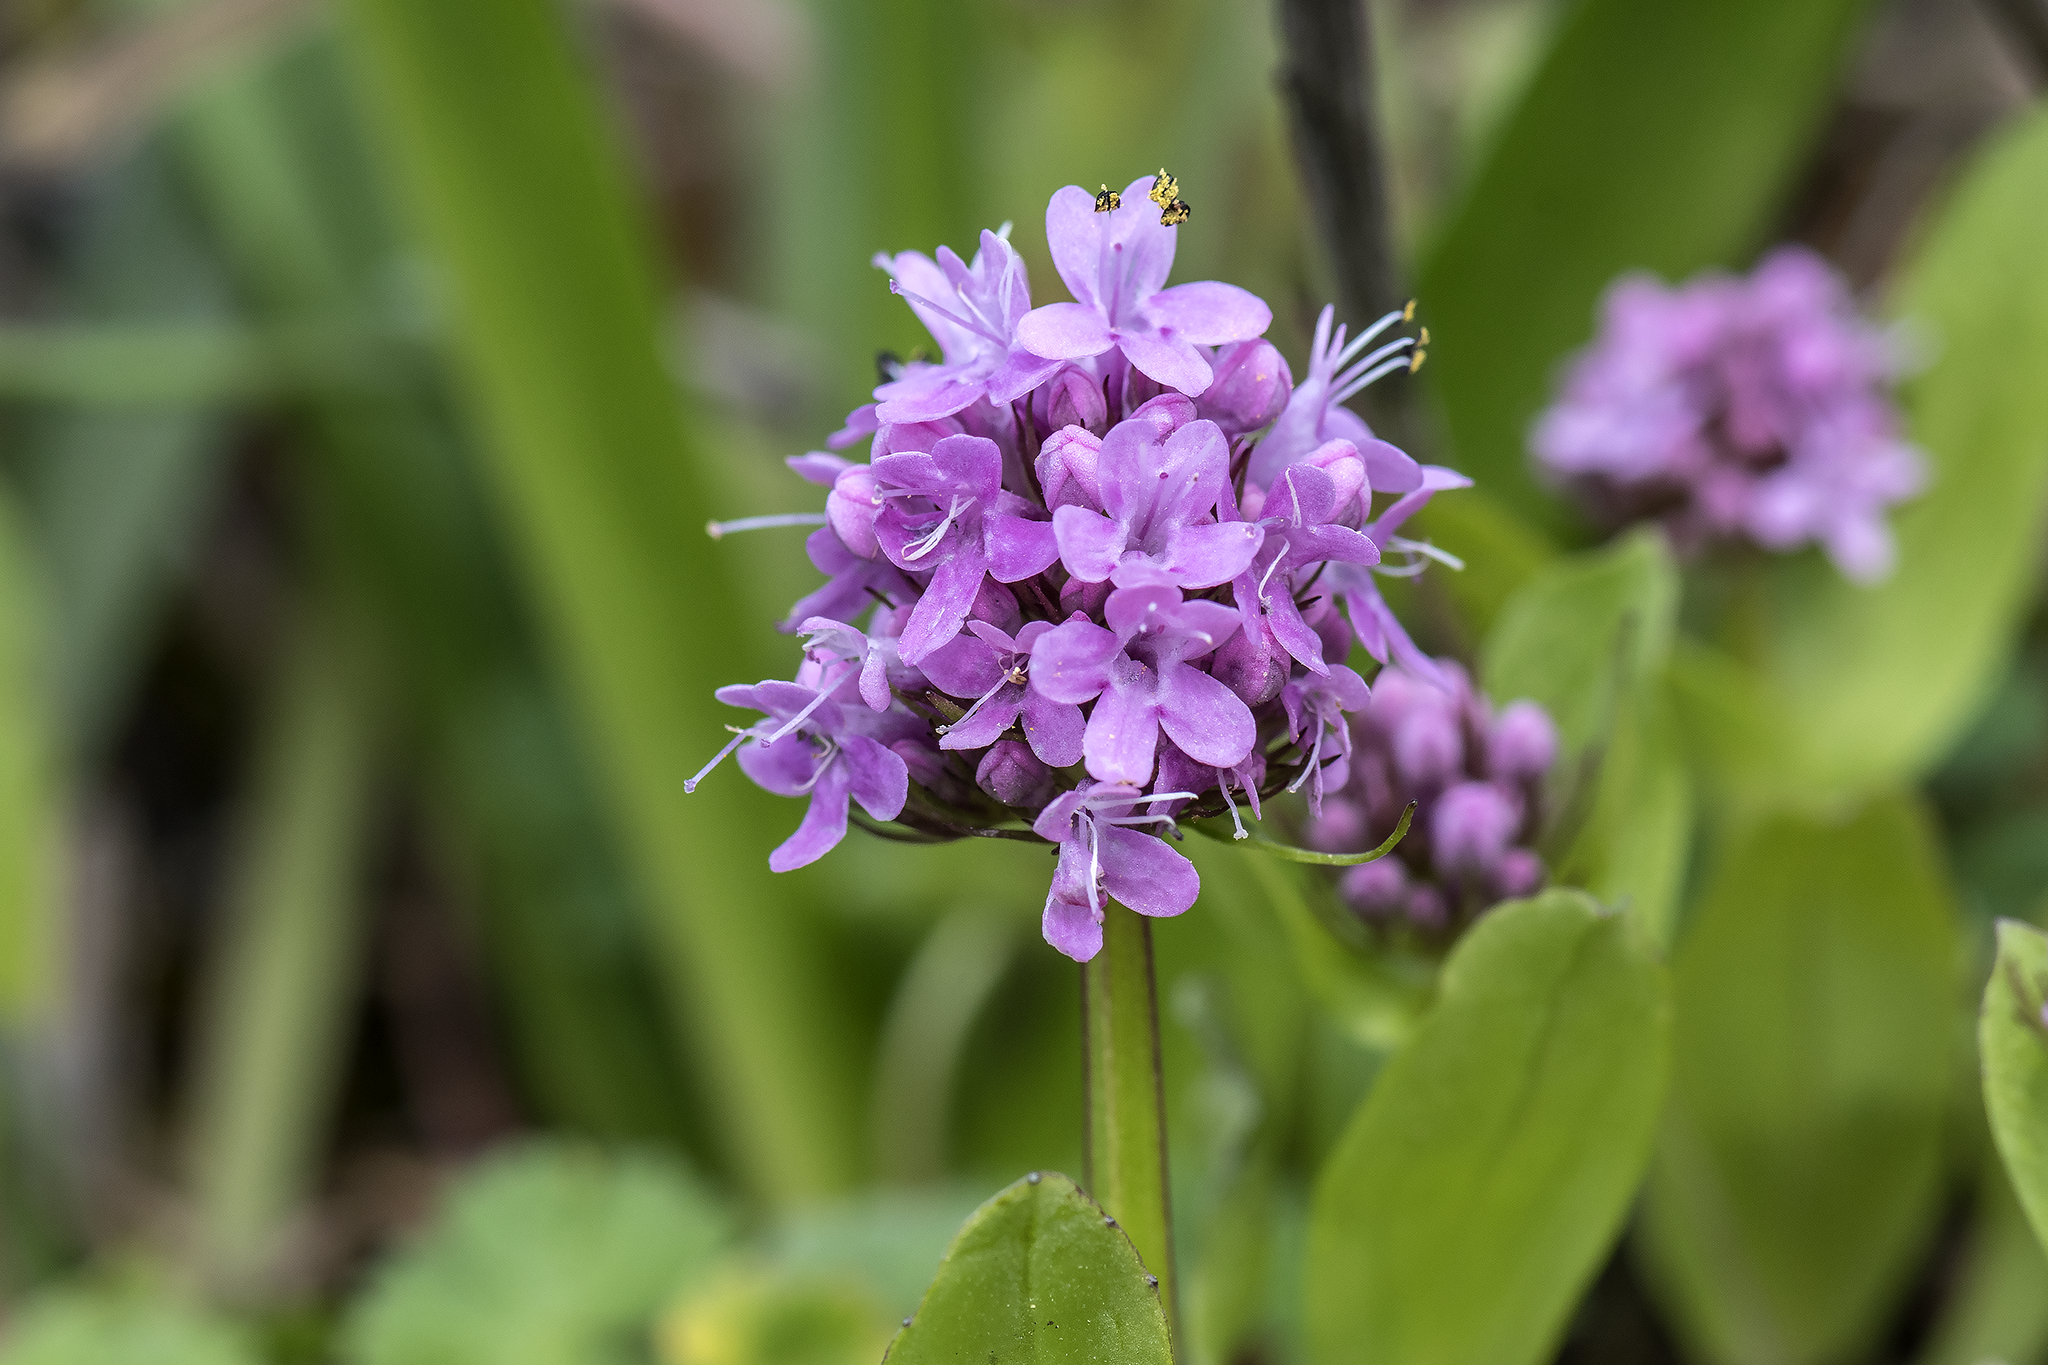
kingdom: Plantae
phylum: Tracheophyta
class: Magnoliopsida
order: Dipsacales
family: Caprifoliaceae
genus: Plectritis
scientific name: Plectritis congesta
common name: Pink plectritis
